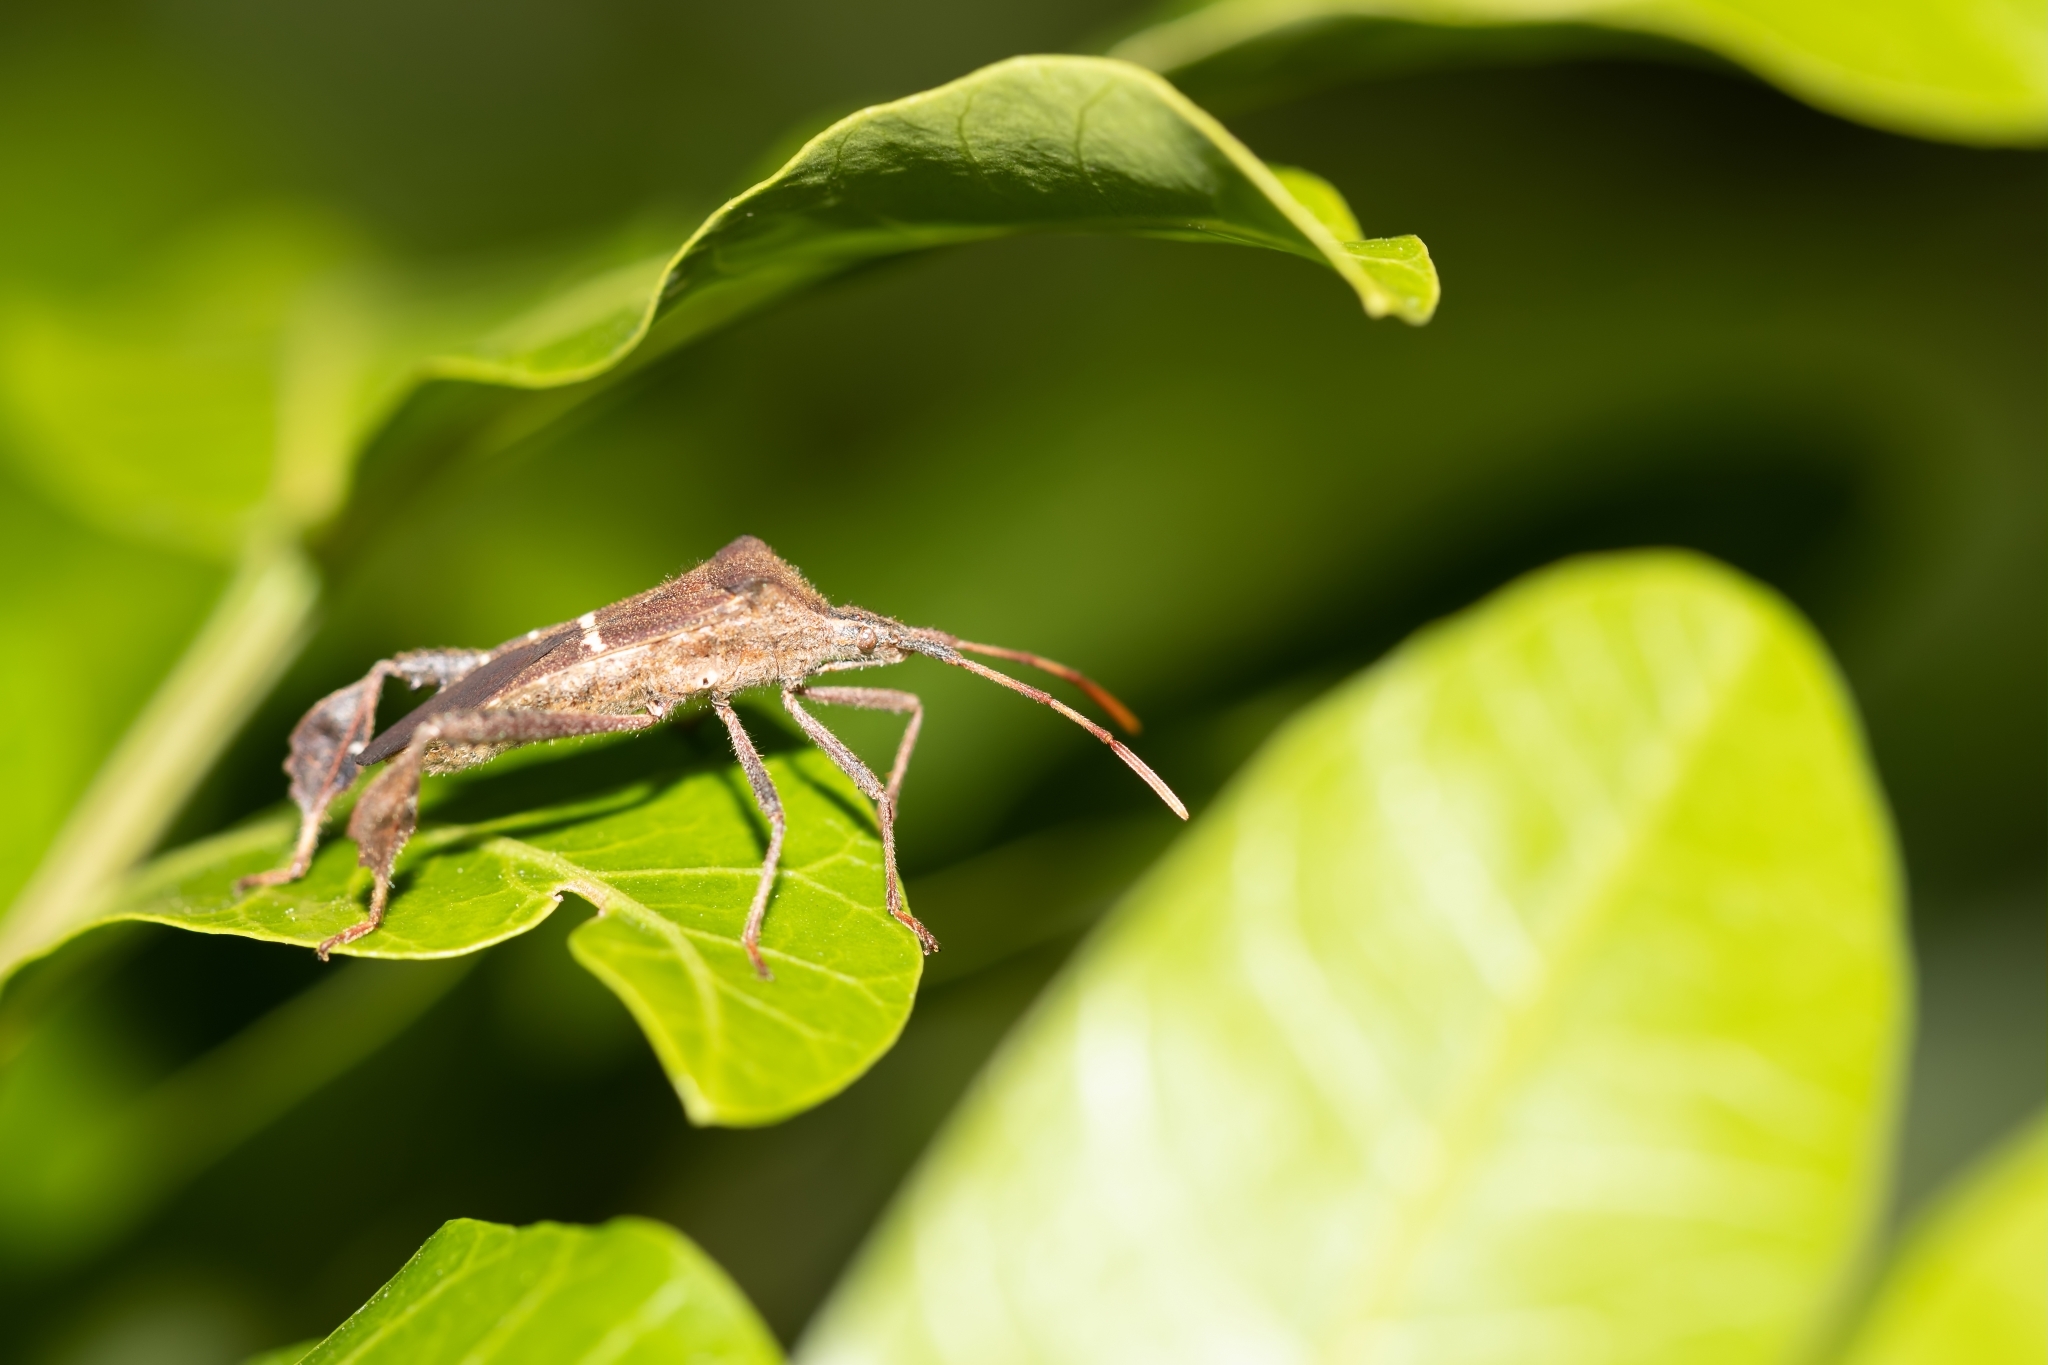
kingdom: Animalia
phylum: Arthropoda
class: Insecta
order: Hemiptera
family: Coreidae
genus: Leptoglossus
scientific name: Leptoglossus phyllopus
